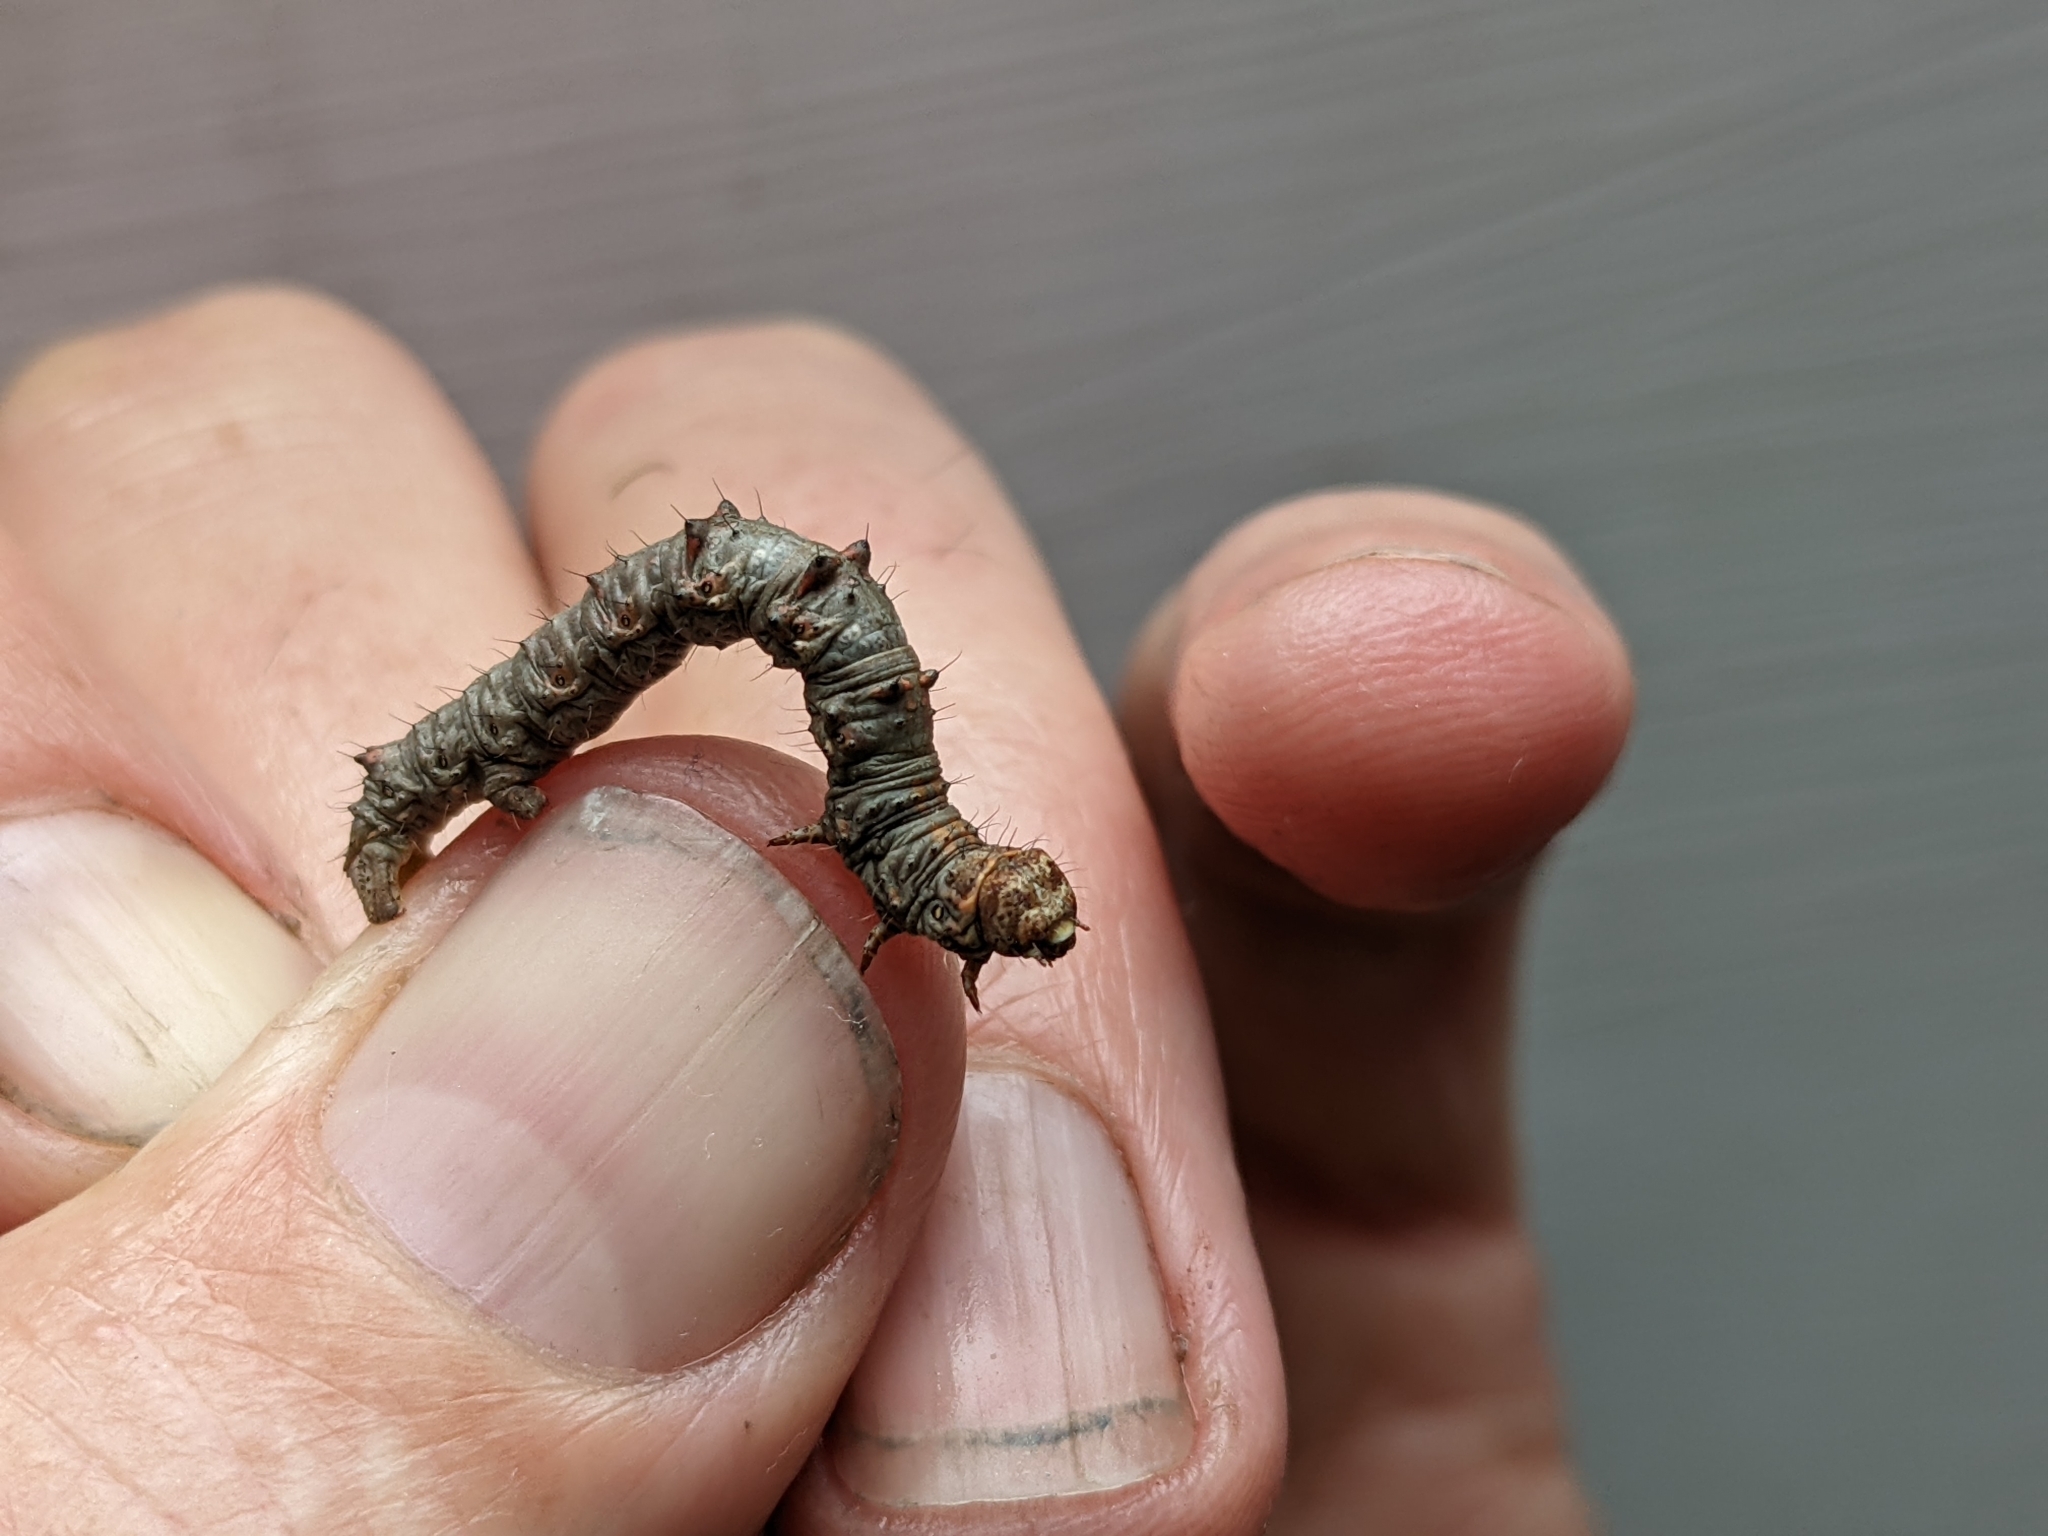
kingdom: Animalia
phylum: Arthropoda
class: Insecta
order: Lepidoptera
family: Geometridae
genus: Phigalia
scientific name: Phigalia pilosaria
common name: Pale brindled beauty
